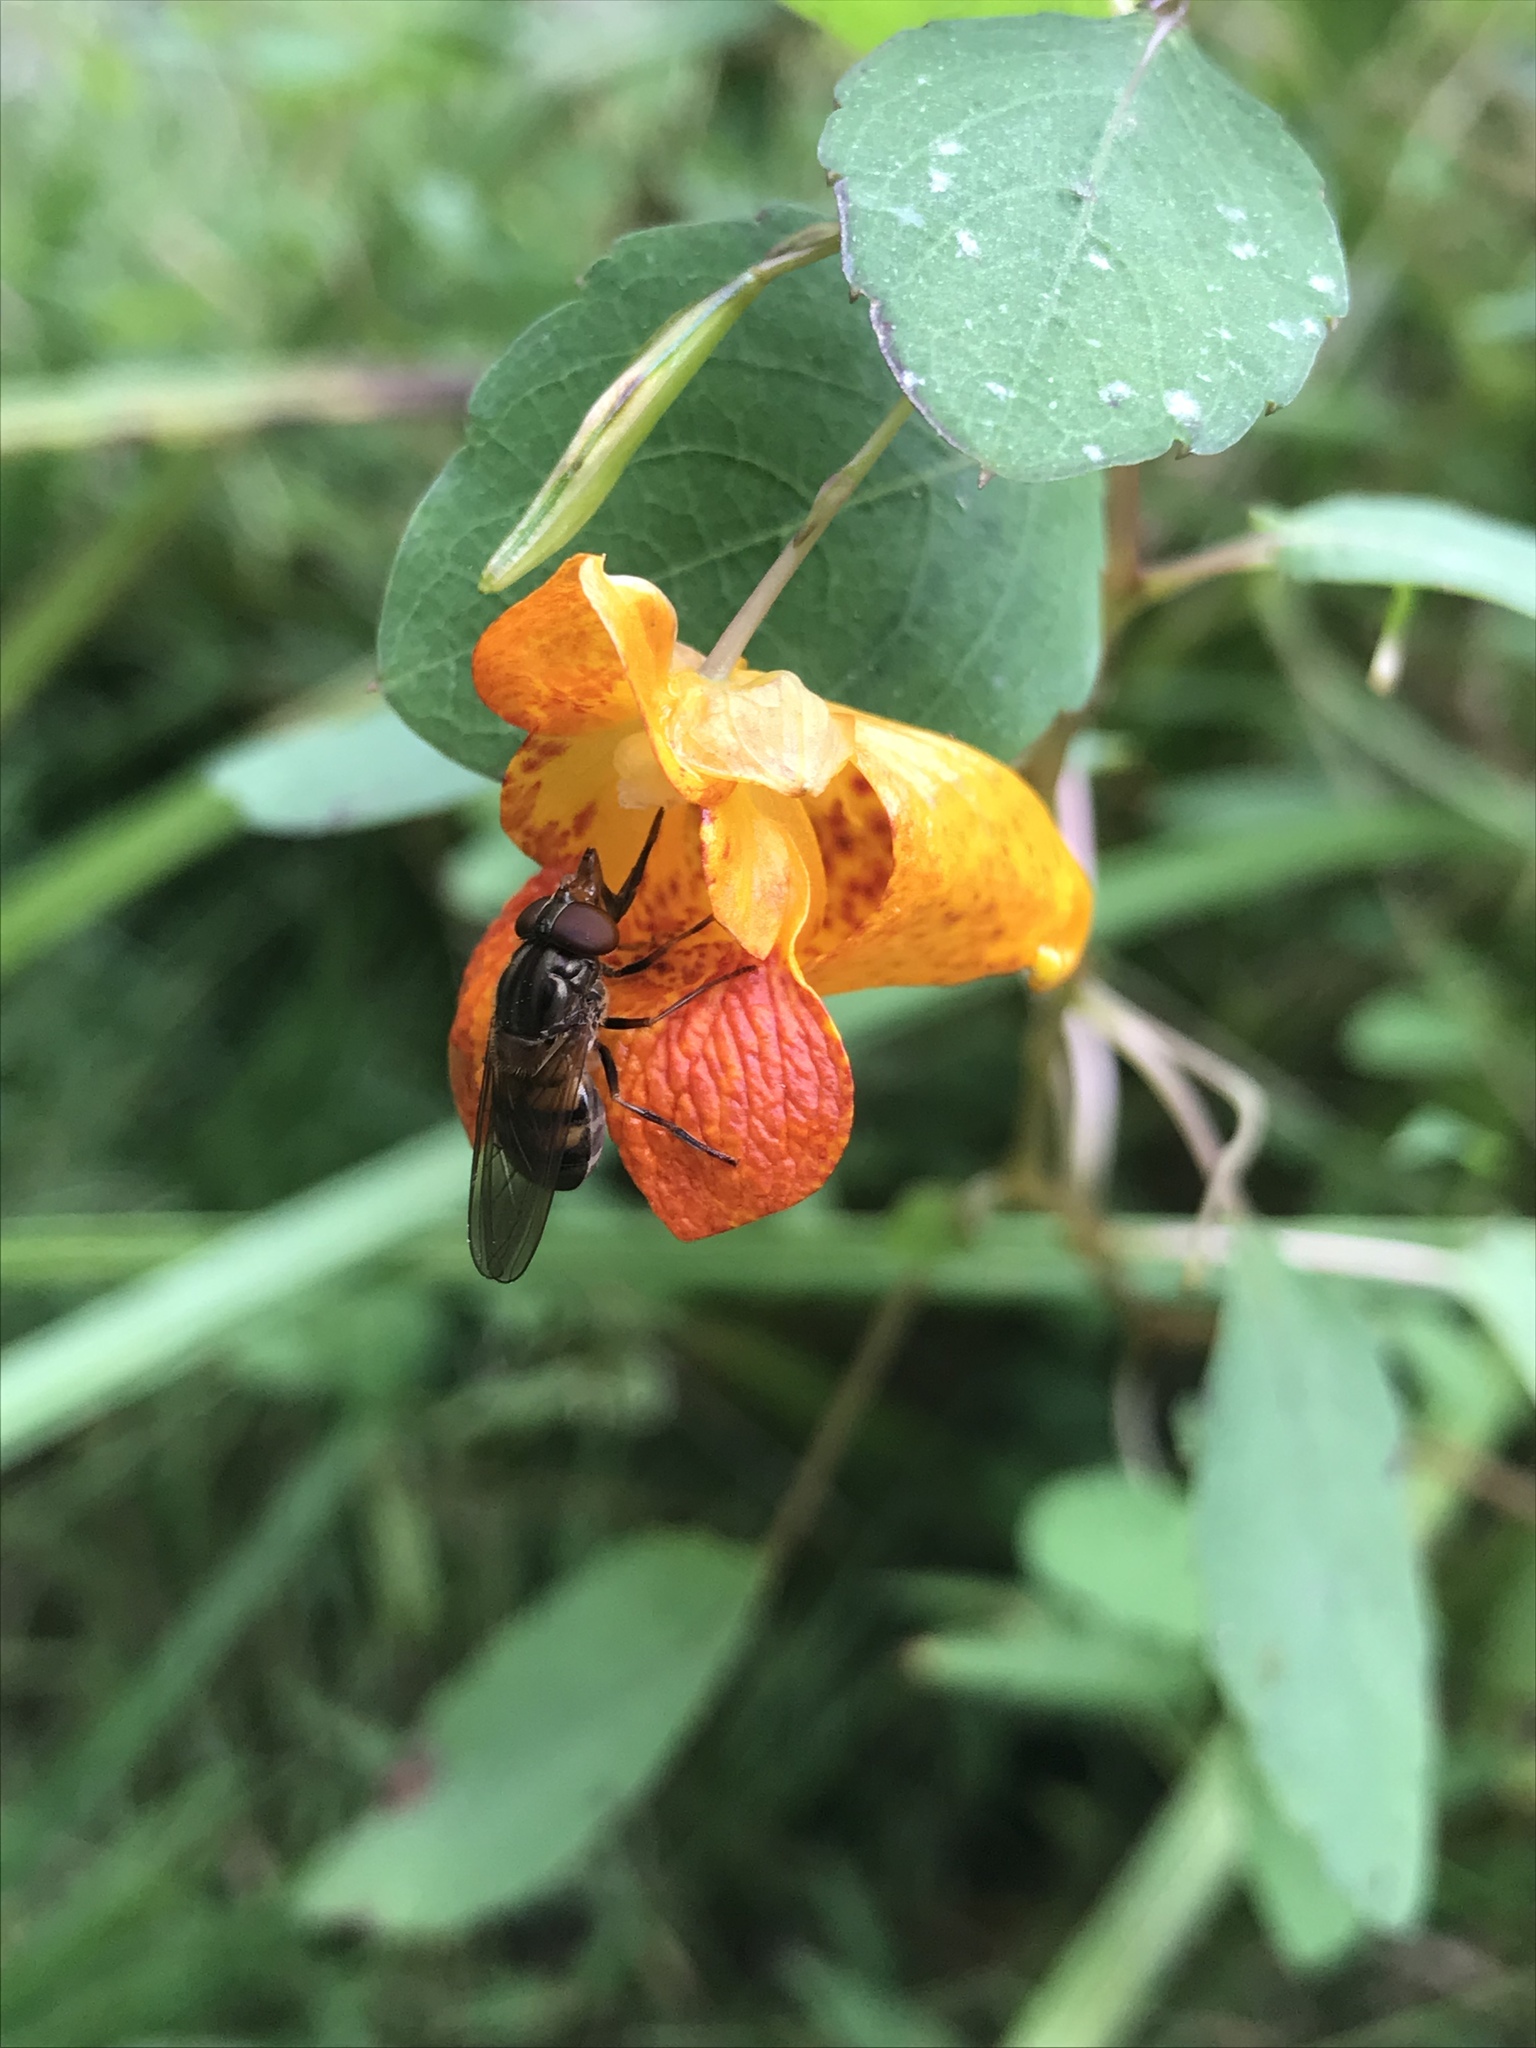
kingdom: Animalia
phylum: Arthropoda
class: Insecta
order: Diptera
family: Syrphidae
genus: Rhingia
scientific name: Rhingia nasica
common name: American snout fly
